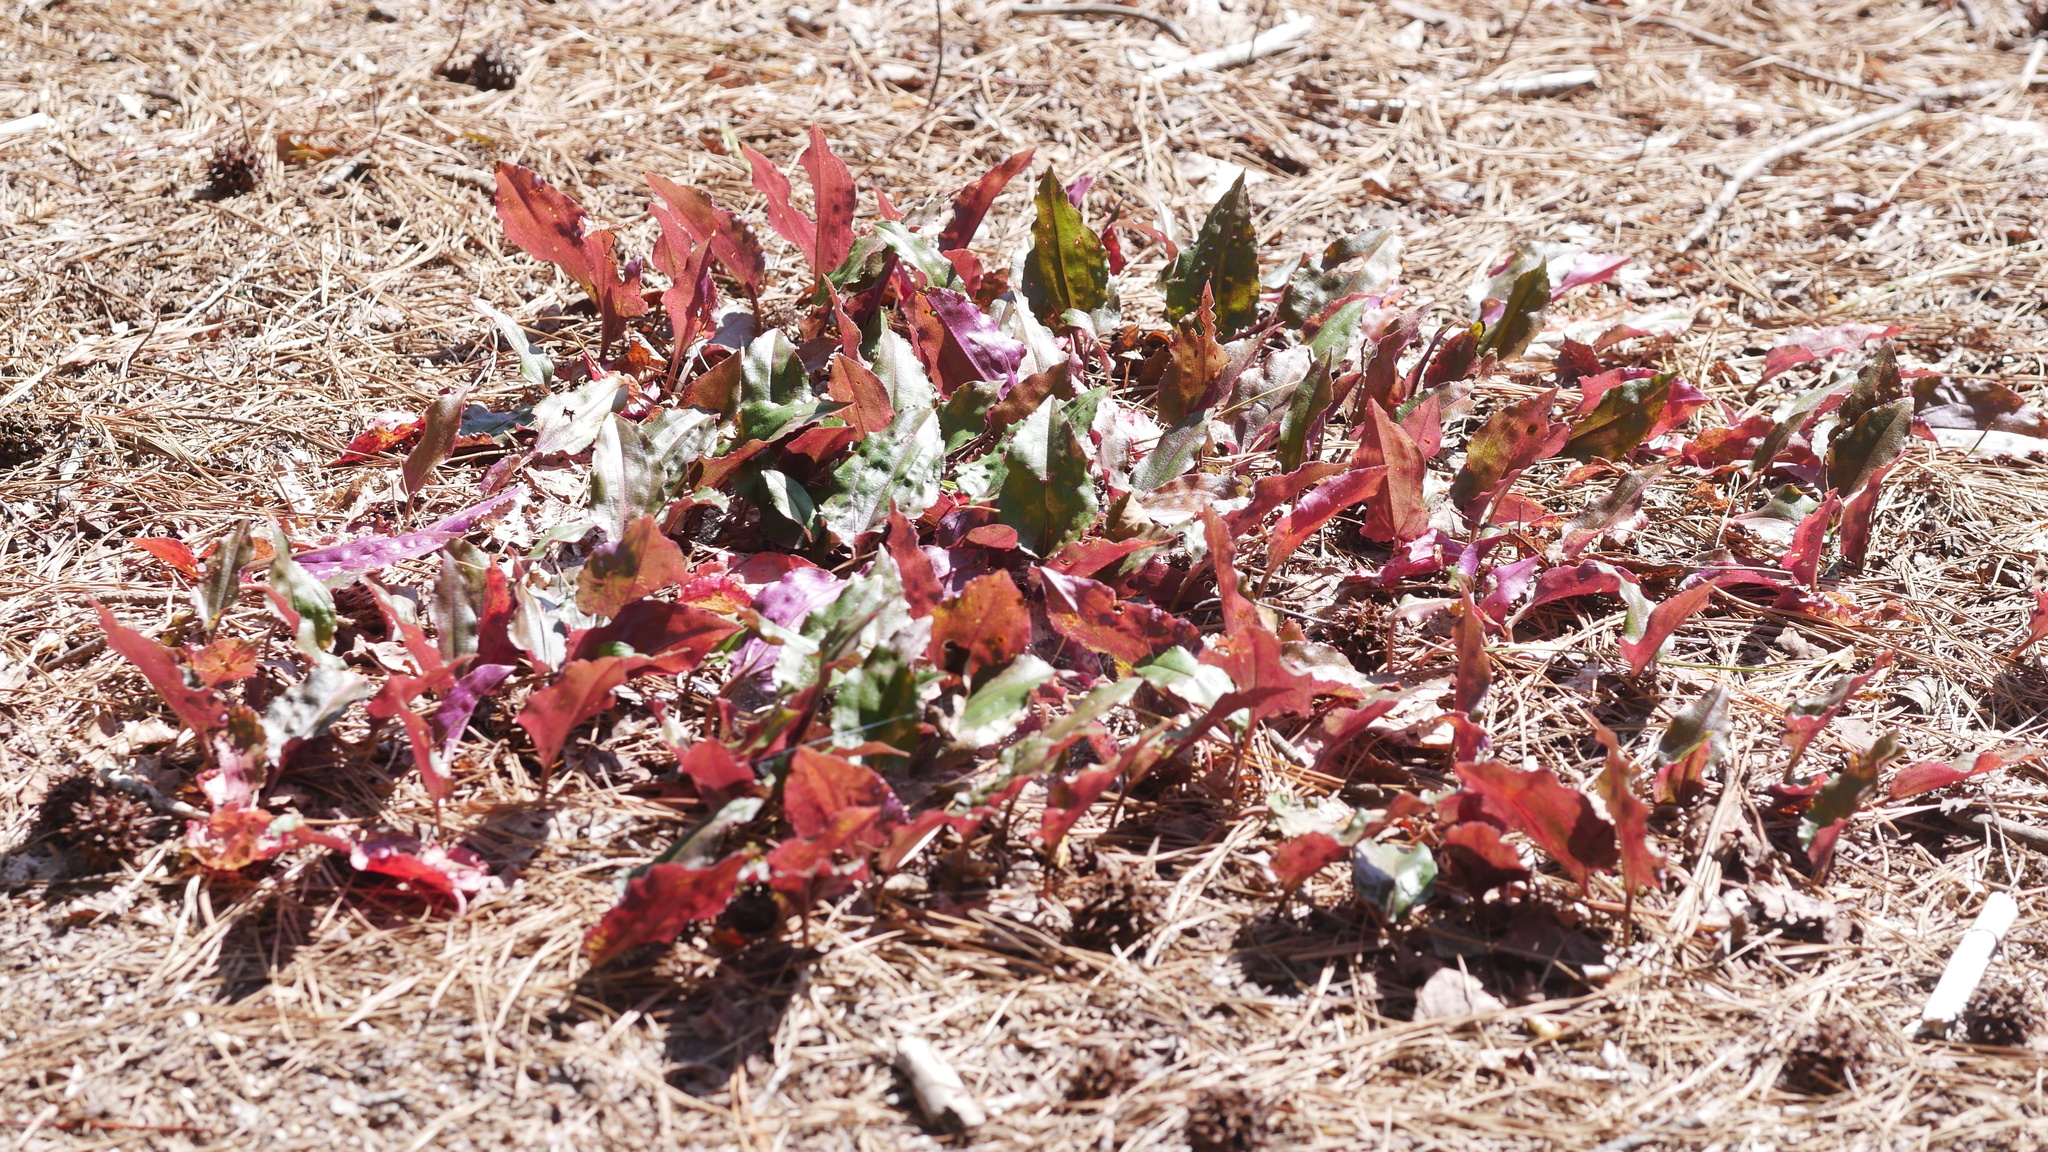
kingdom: Plantae
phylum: Tracheophyta
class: Liliopsida
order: Asparagales
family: Orchidaceae
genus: Tipularia
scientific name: Tipularia discolor
